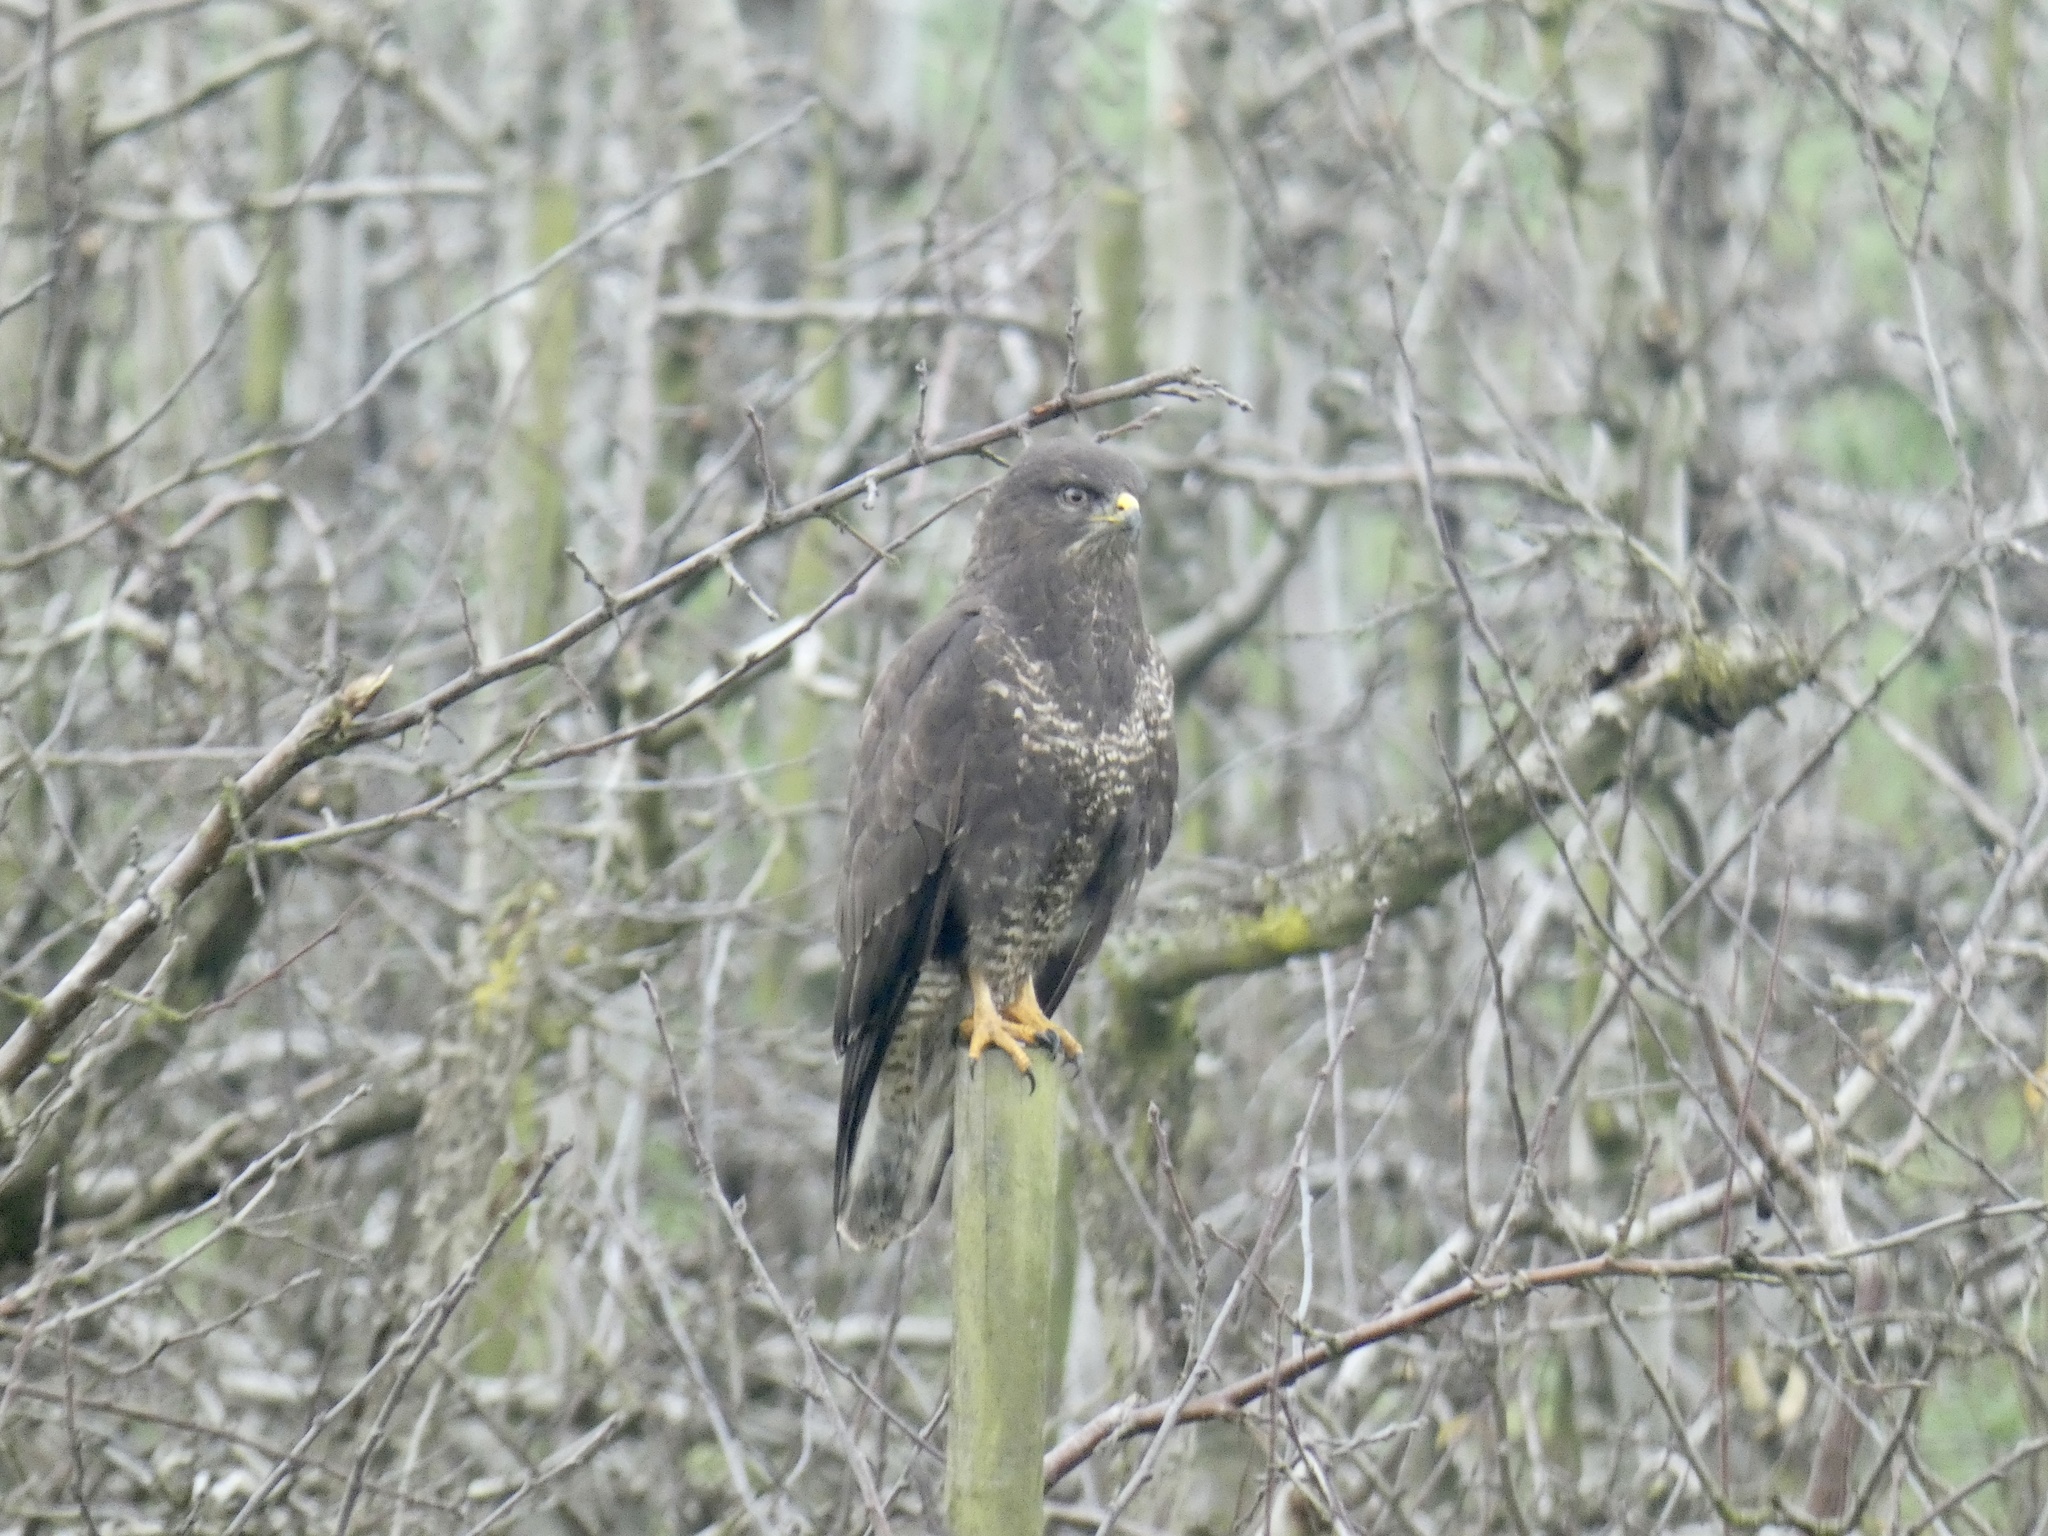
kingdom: Animalia
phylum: Chordata
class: Aves
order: Accipitriformes
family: Accipitridae
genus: Buteo
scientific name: Buteo buteo
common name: Common buzzard
